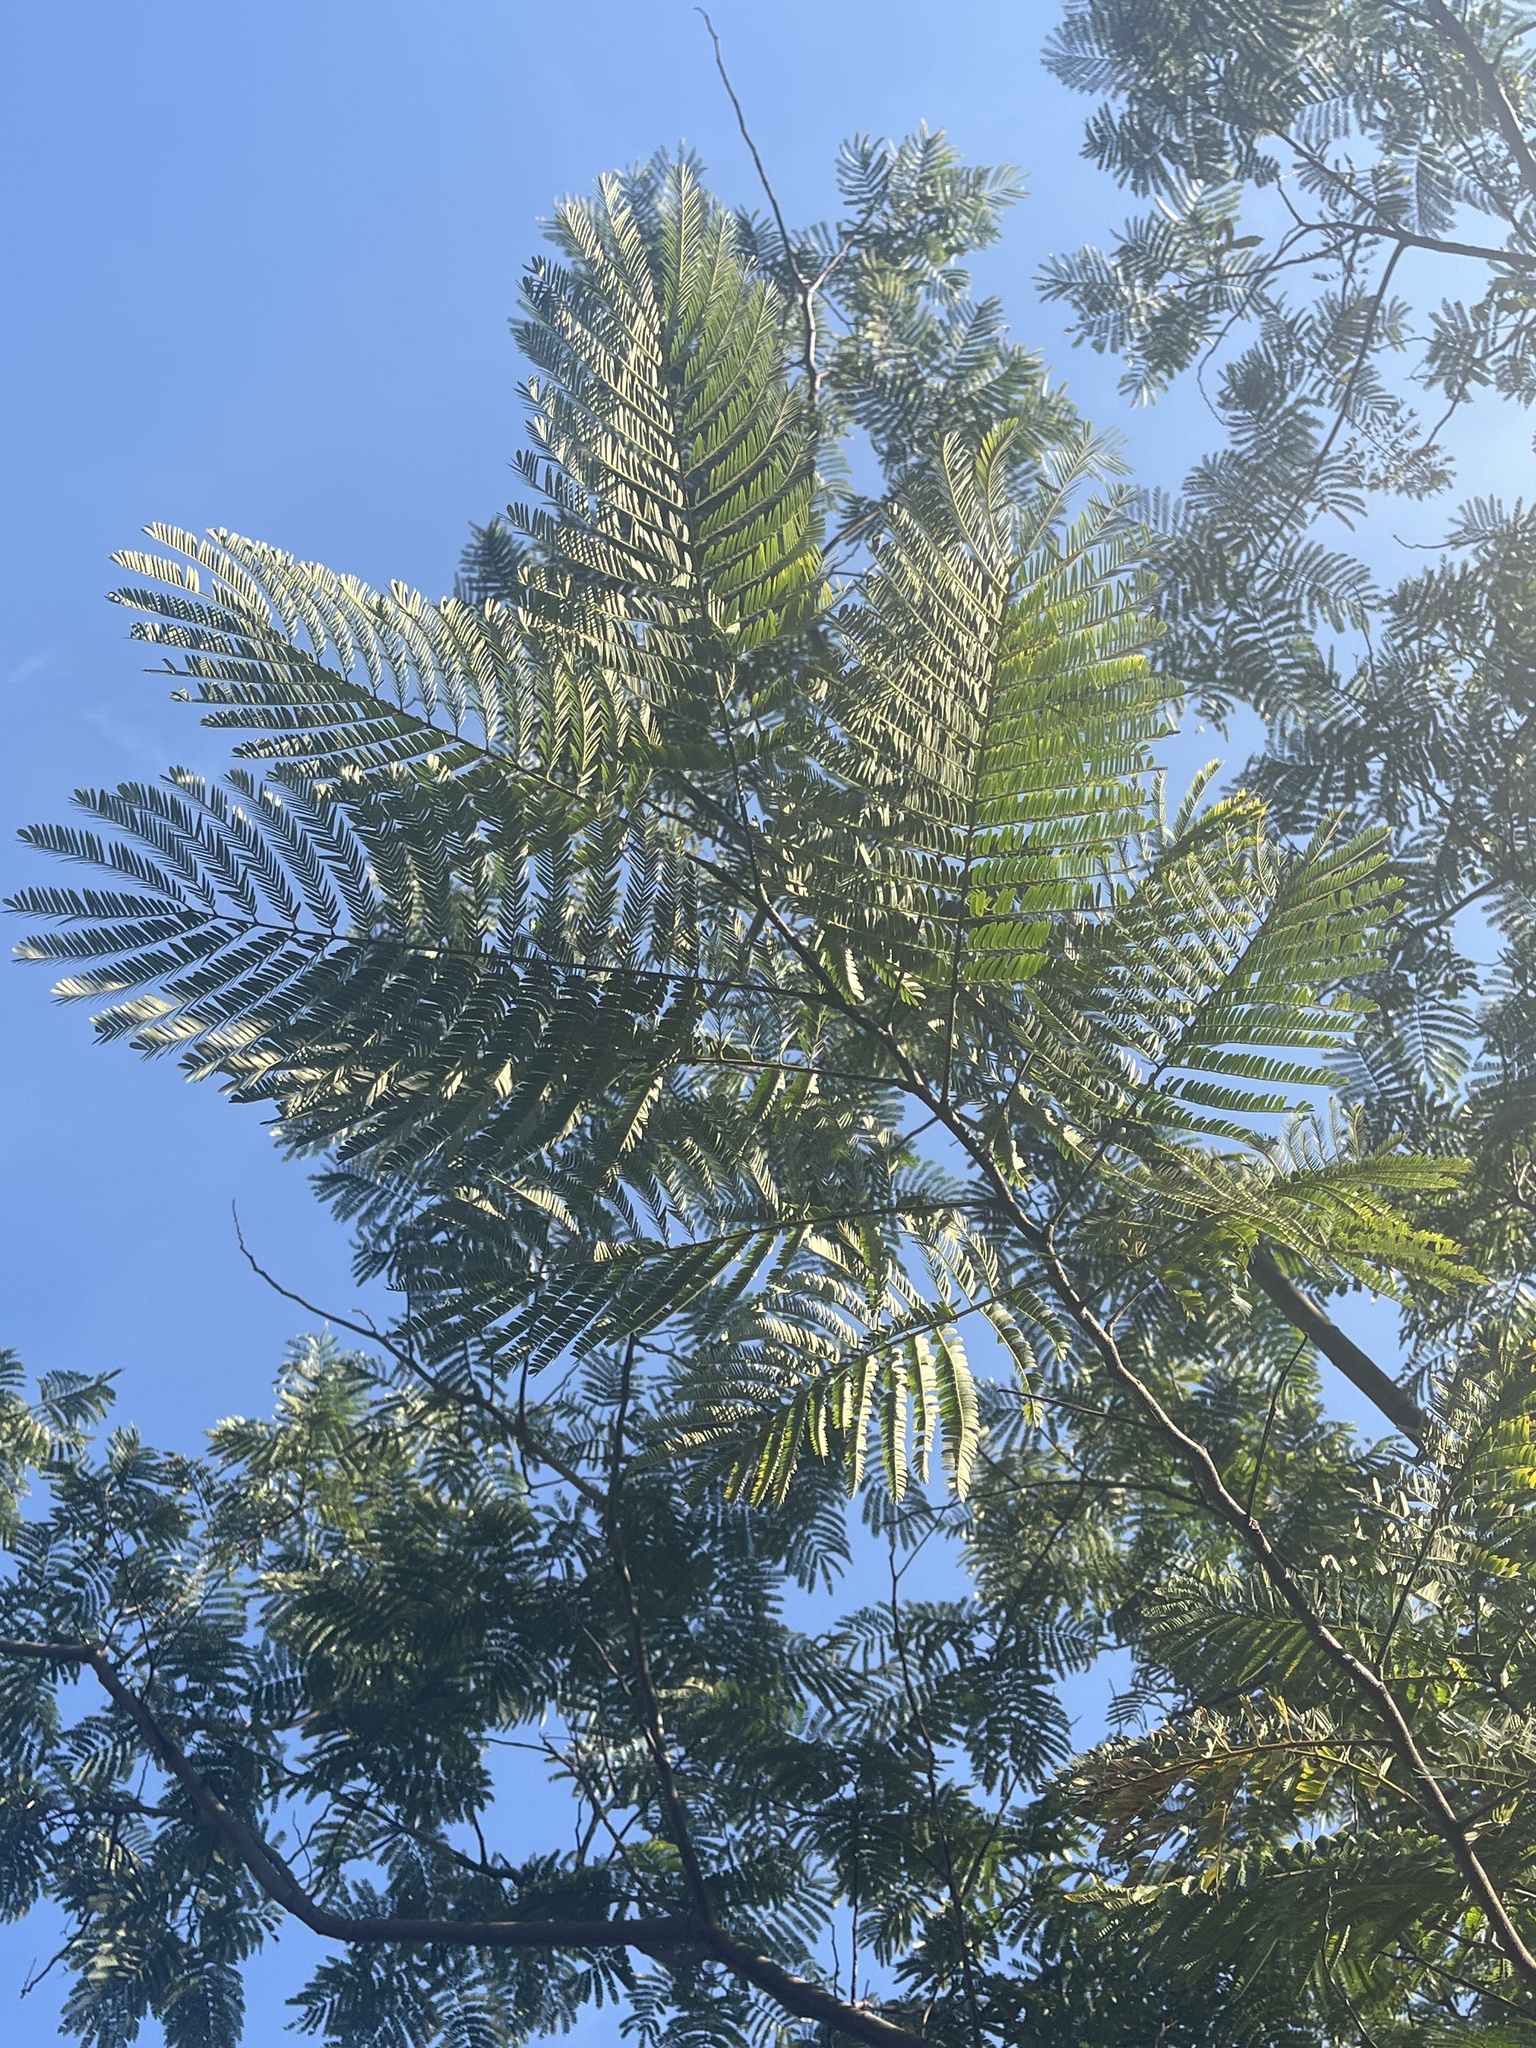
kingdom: Plantae
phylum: Tracheophyta
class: Magnoliopsida
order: Fabales
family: Fabaceae
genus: Albizia
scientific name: Albizia julibrissin
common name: Silktree
